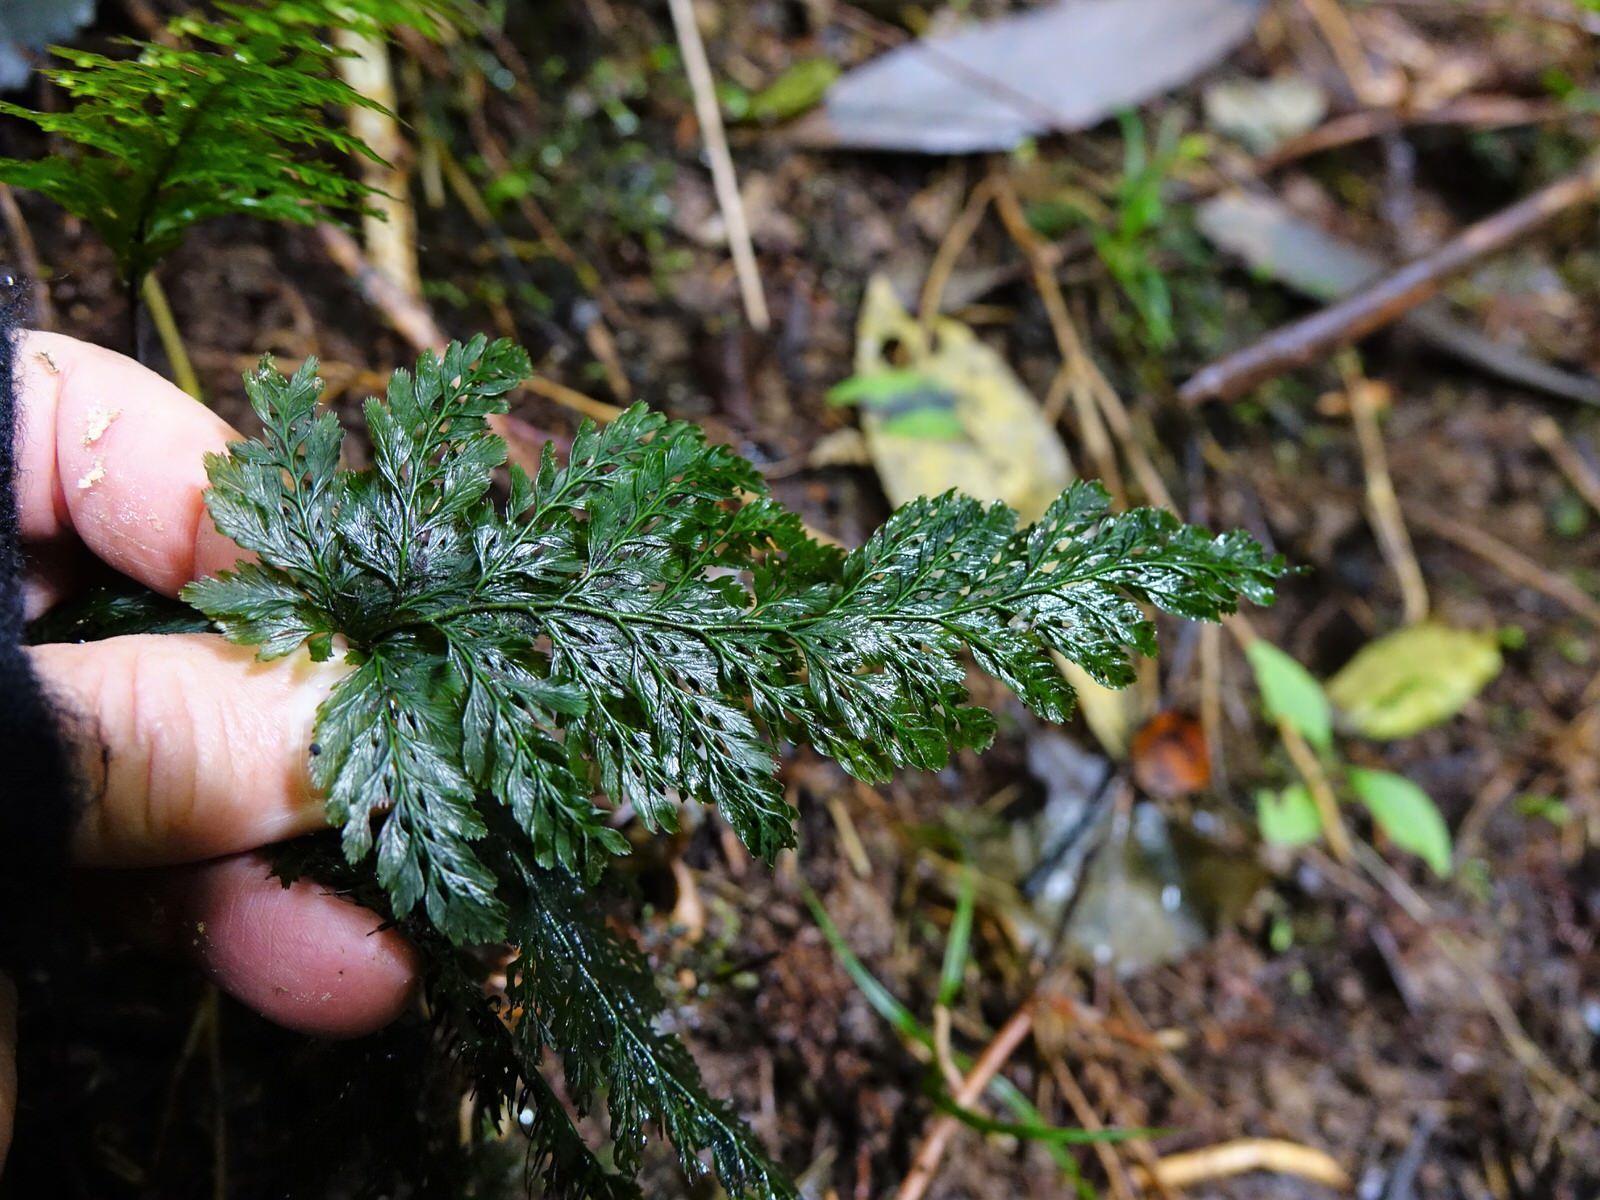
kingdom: Plantae
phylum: Tracheophyta
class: Polypodiopsida
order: Hymenophyllales
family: Hymenophyllaceae
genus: Abrodictyum
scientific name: Abrodictyum elongatum
